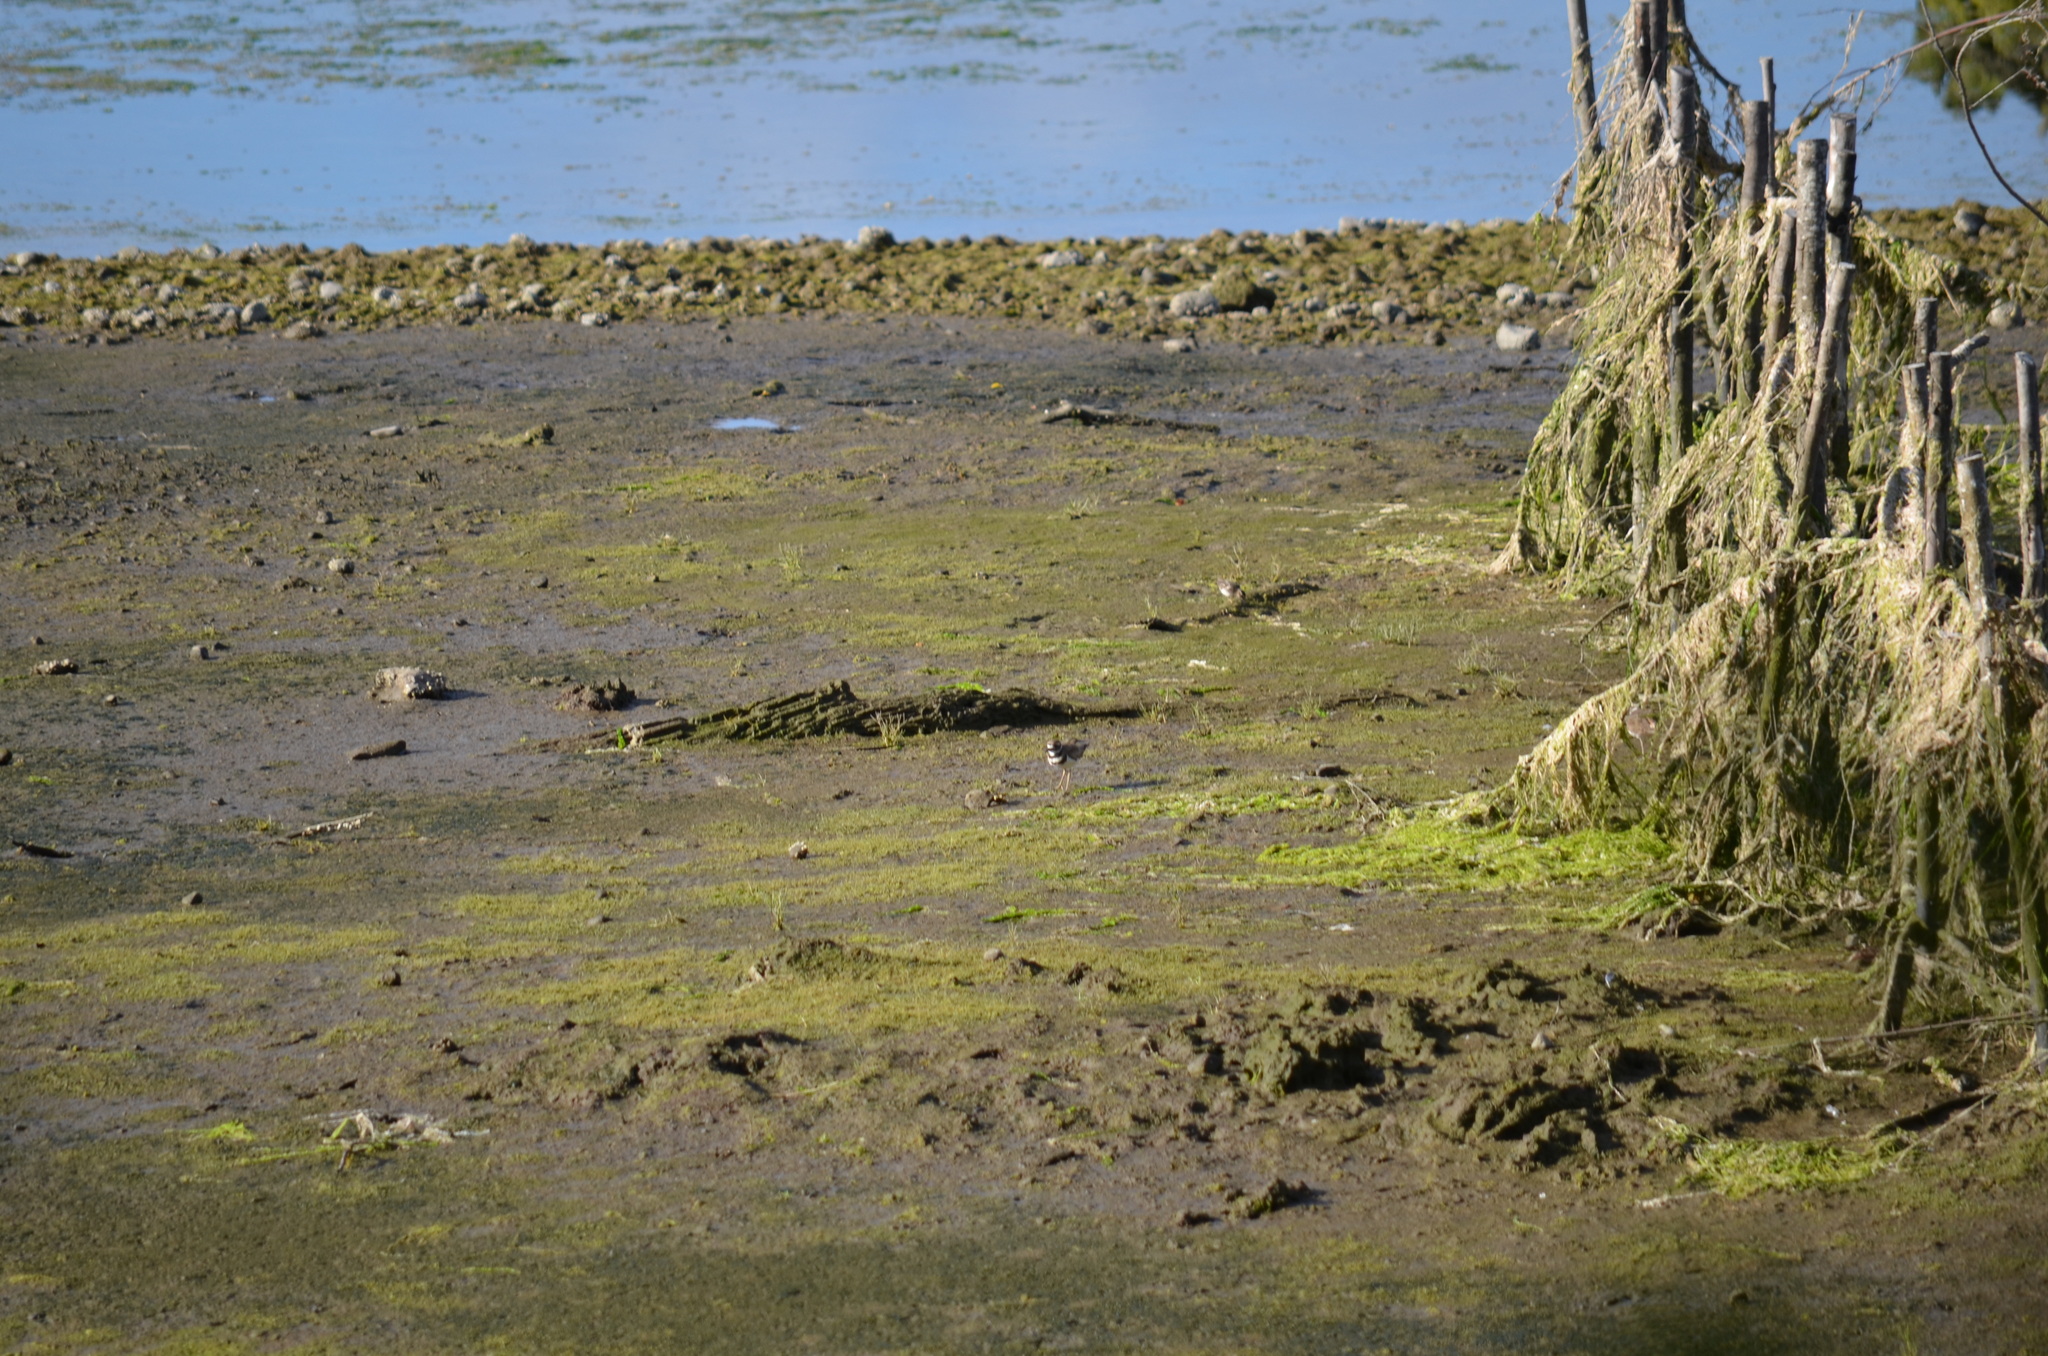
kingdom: Animalia
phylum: Chordata
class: Aves
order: Charadriiformes
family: Charadriidae
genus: Charadrius
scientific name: Charadrius vociferus
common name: Killdeer
